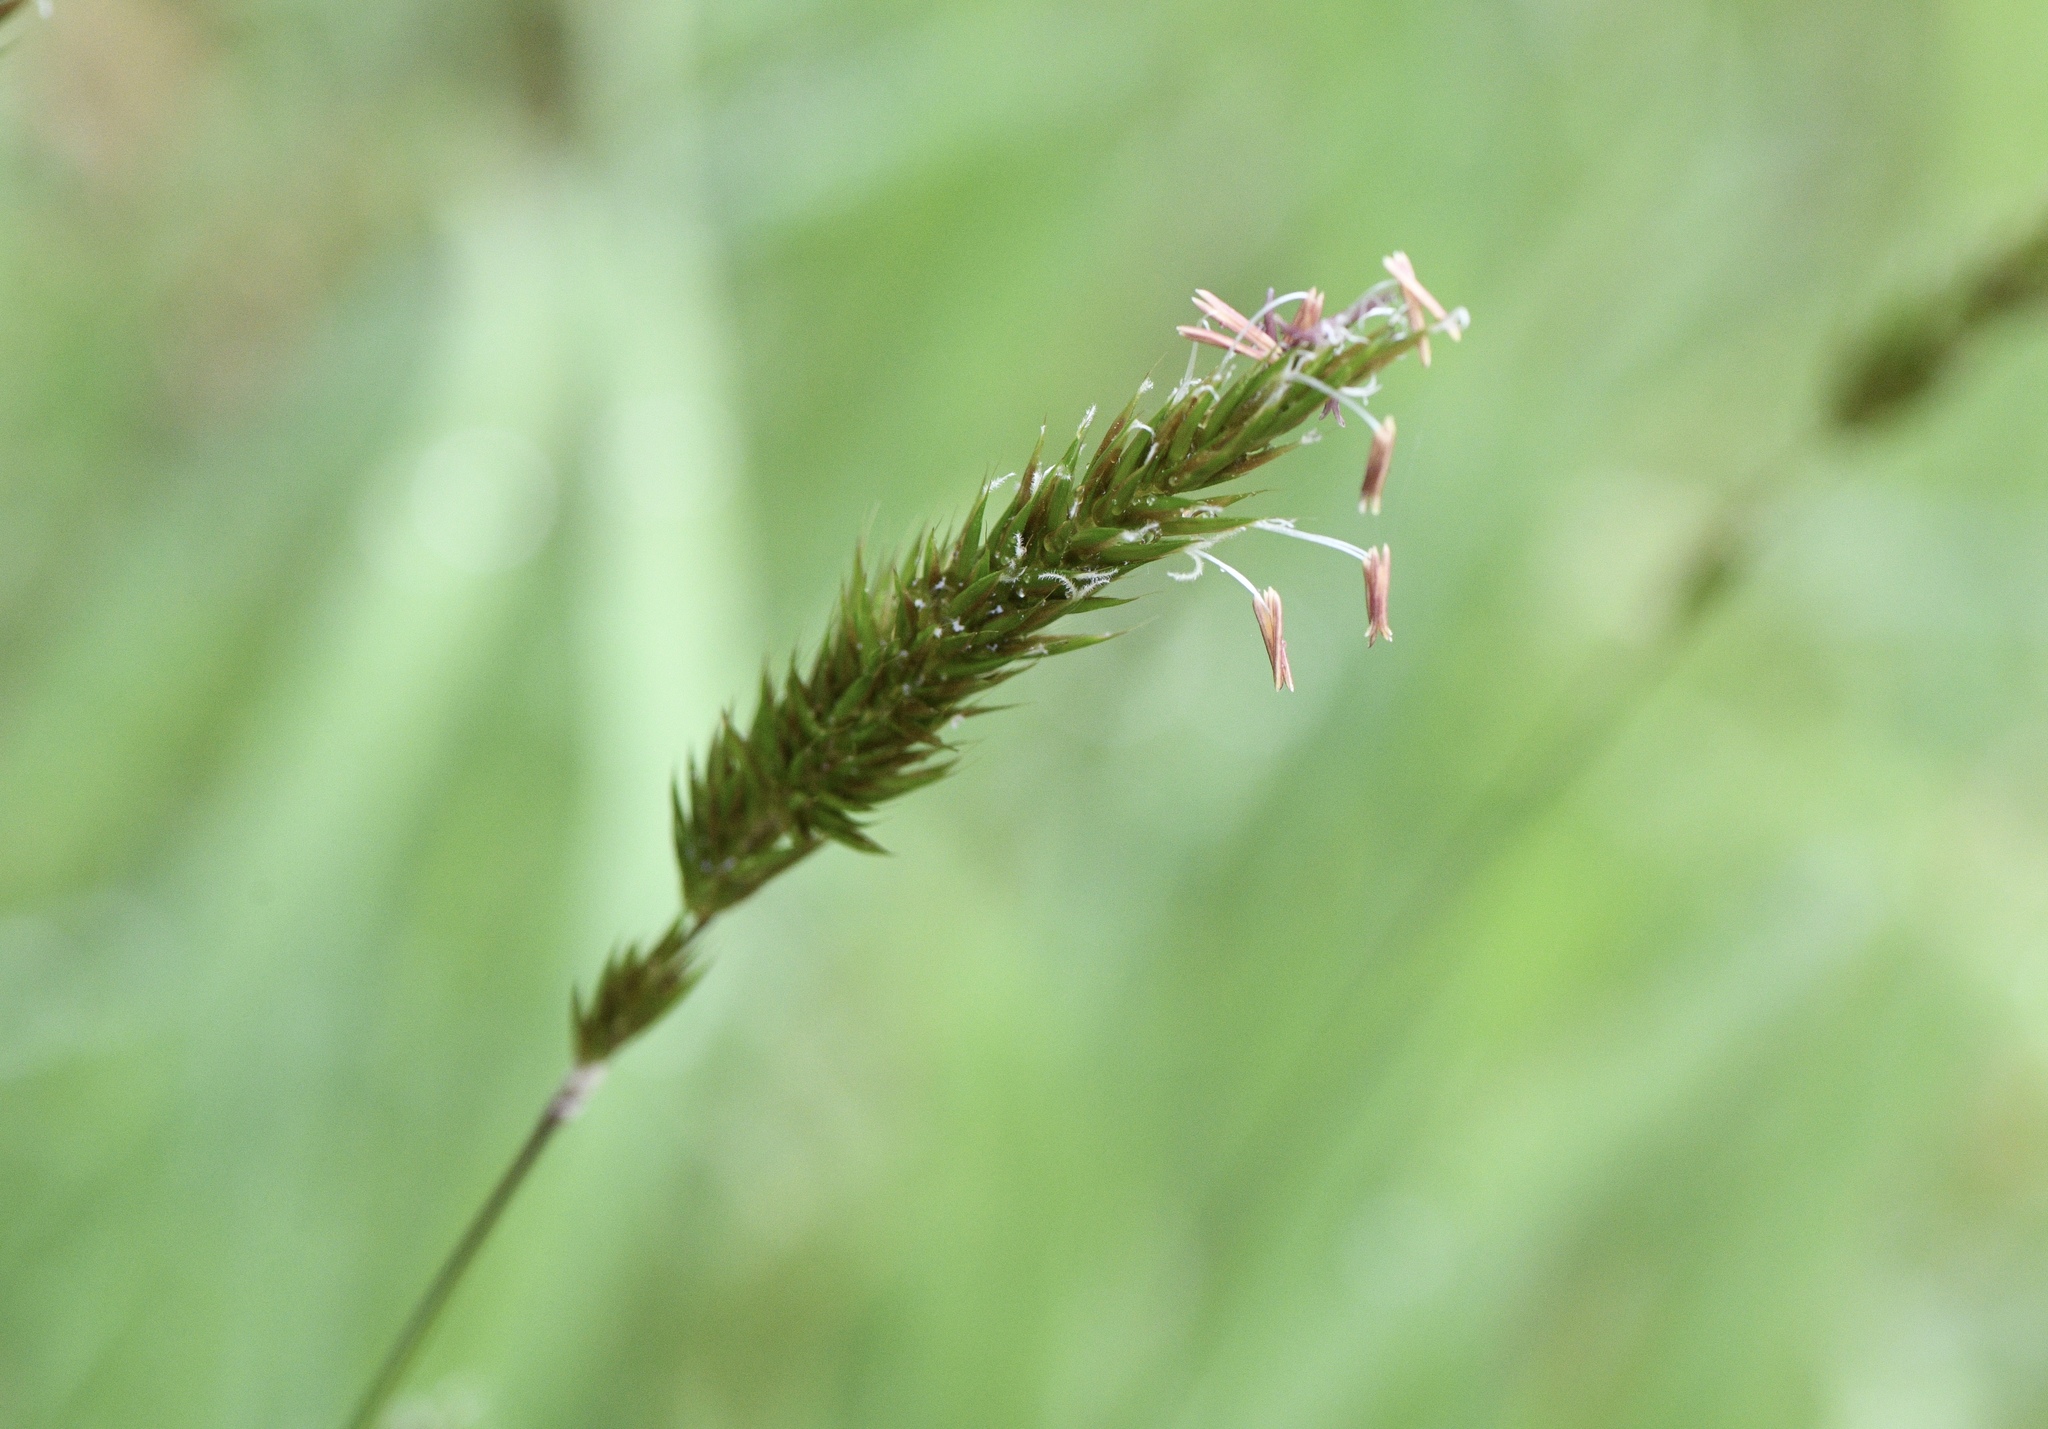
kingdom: Plantae
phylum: Tracheophyta
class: Liliopsida
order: Poales
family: Poaceae
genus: Anthoxanthum
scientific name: Anthoxanthum odoratum
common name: Sweet vernalgrass
